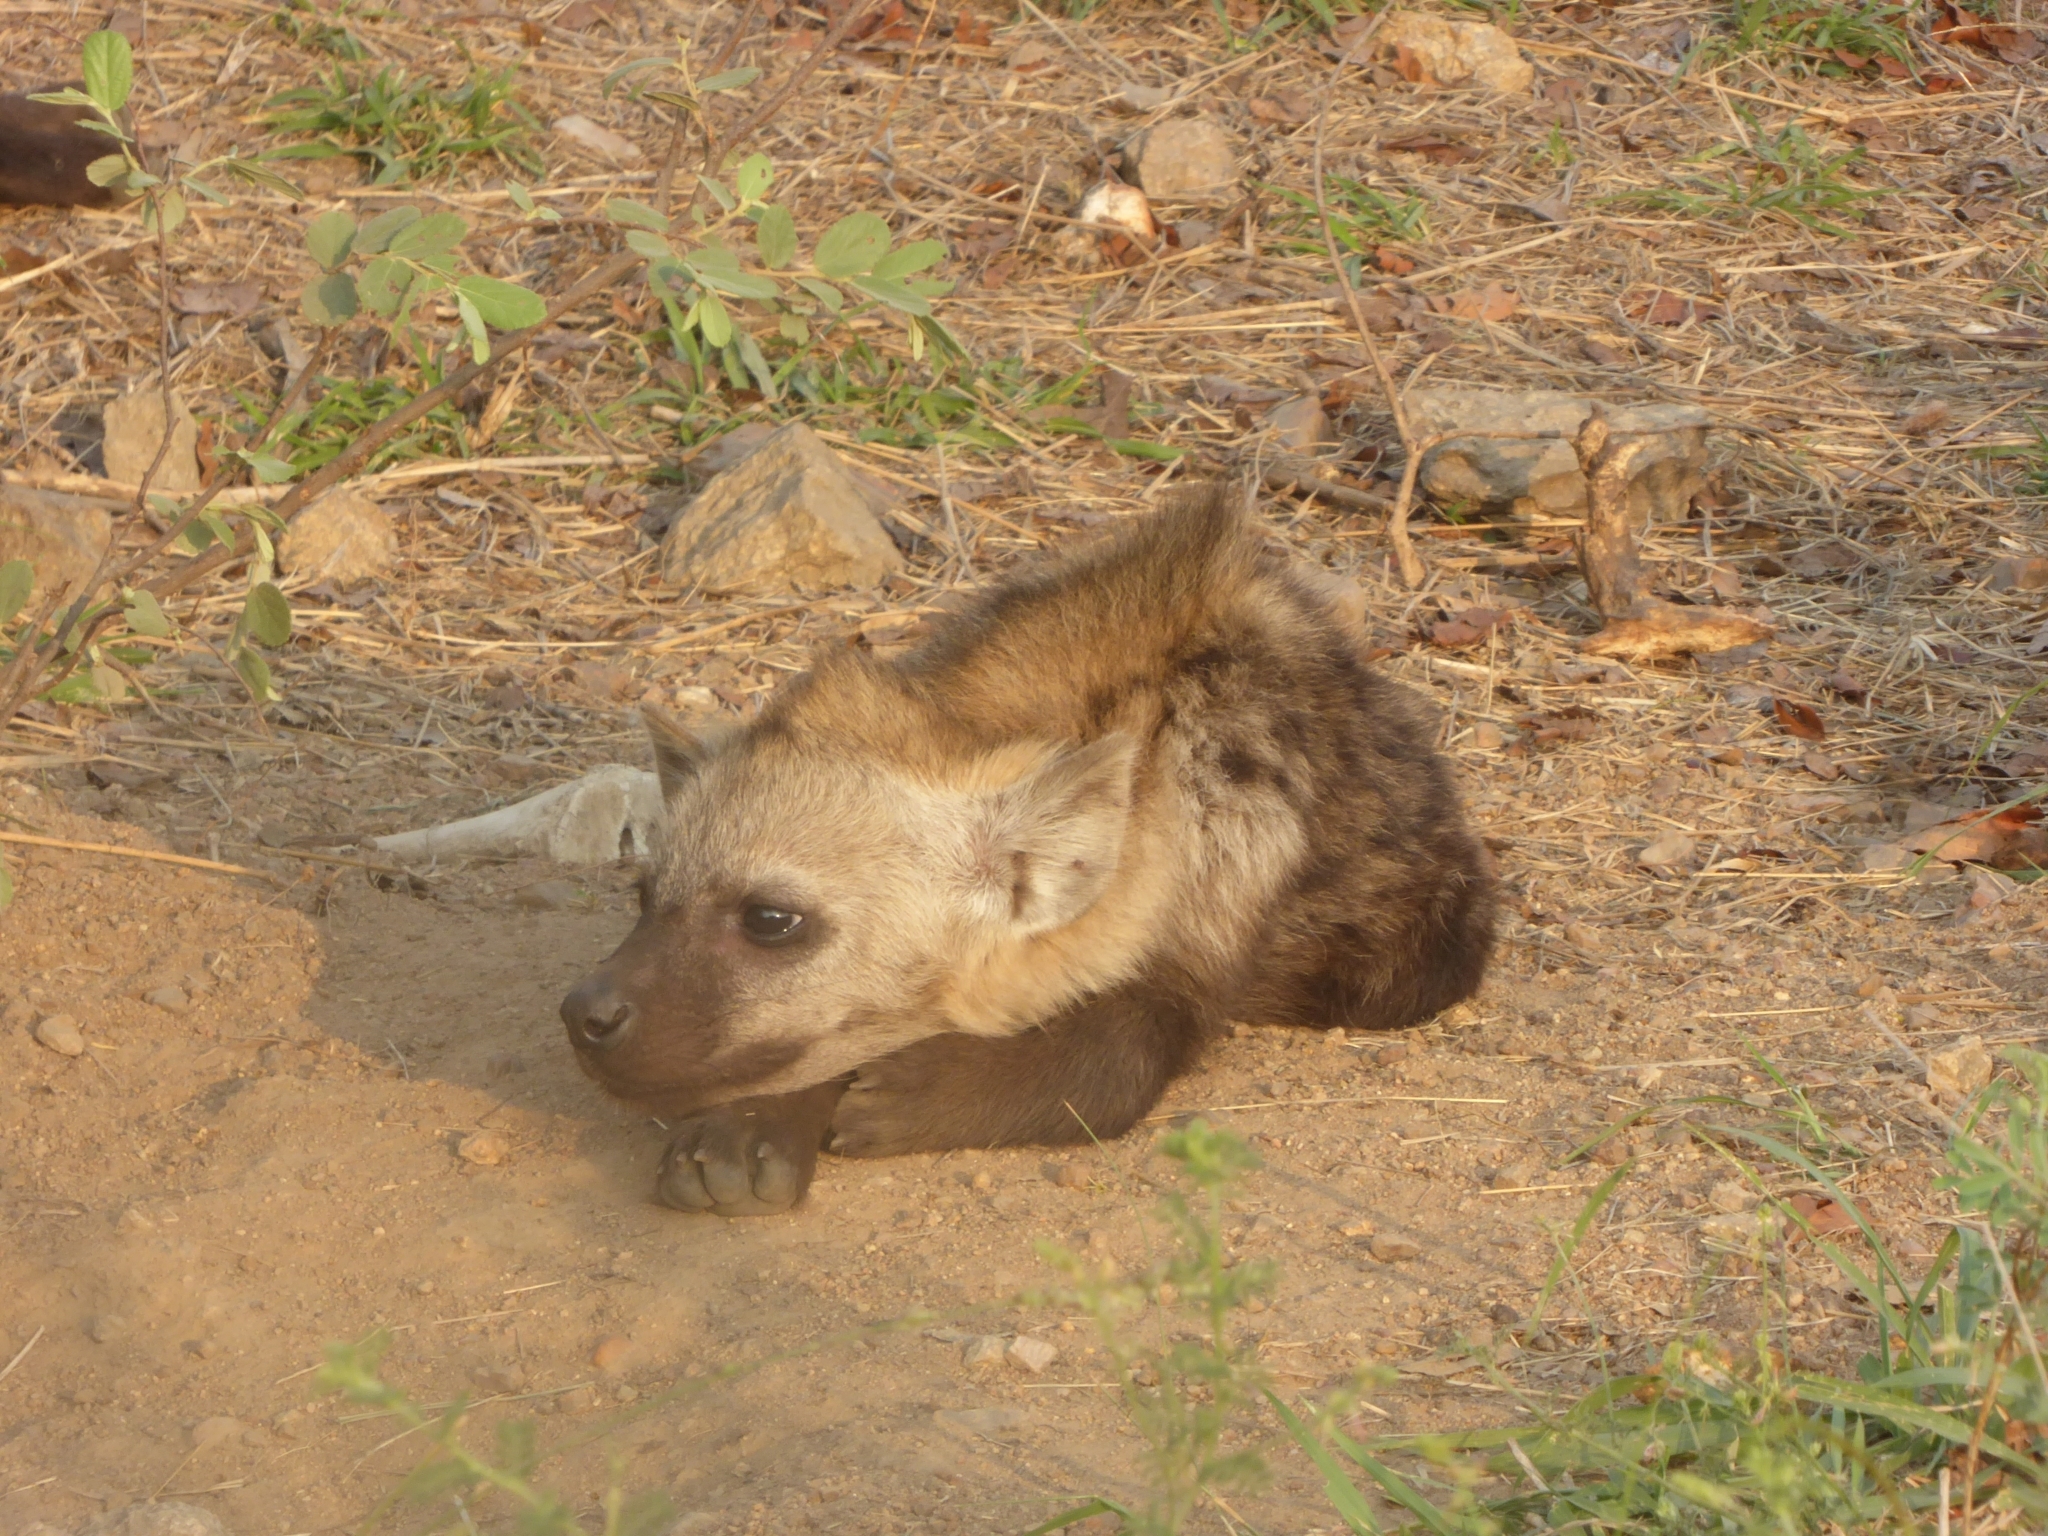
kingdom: Animalia
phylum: Chordata
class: Mammalia
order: Carnivora
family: Hyaenidae
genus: Crocuta
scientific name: Crocuta crocuta
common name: Spotted hyaena
